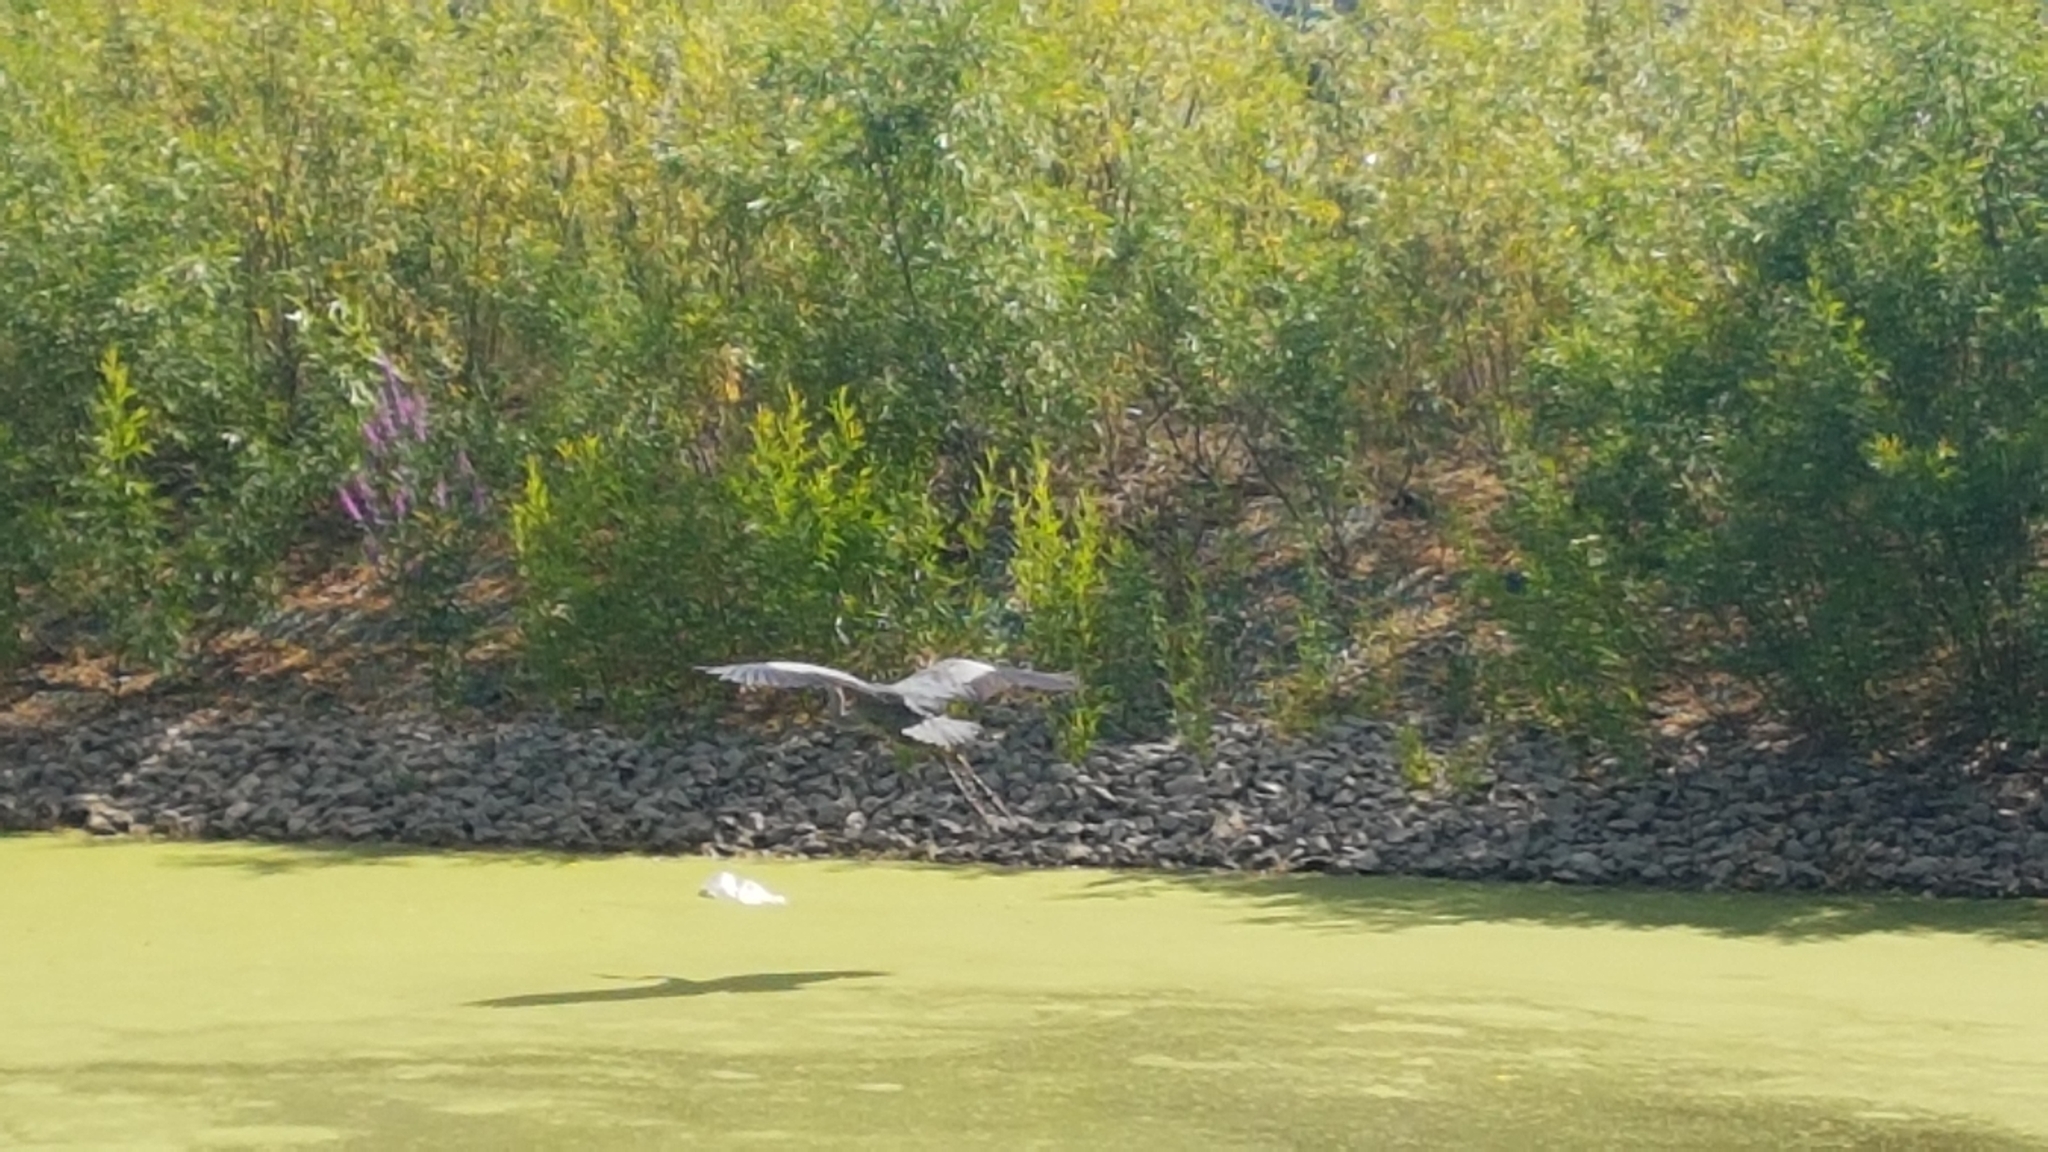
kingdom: Animalia
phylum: Chordata
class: Aves
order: Pelecaniformes
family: Ardeidae
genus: Ardea
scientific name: Ardea herodias
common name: Great blue heron
